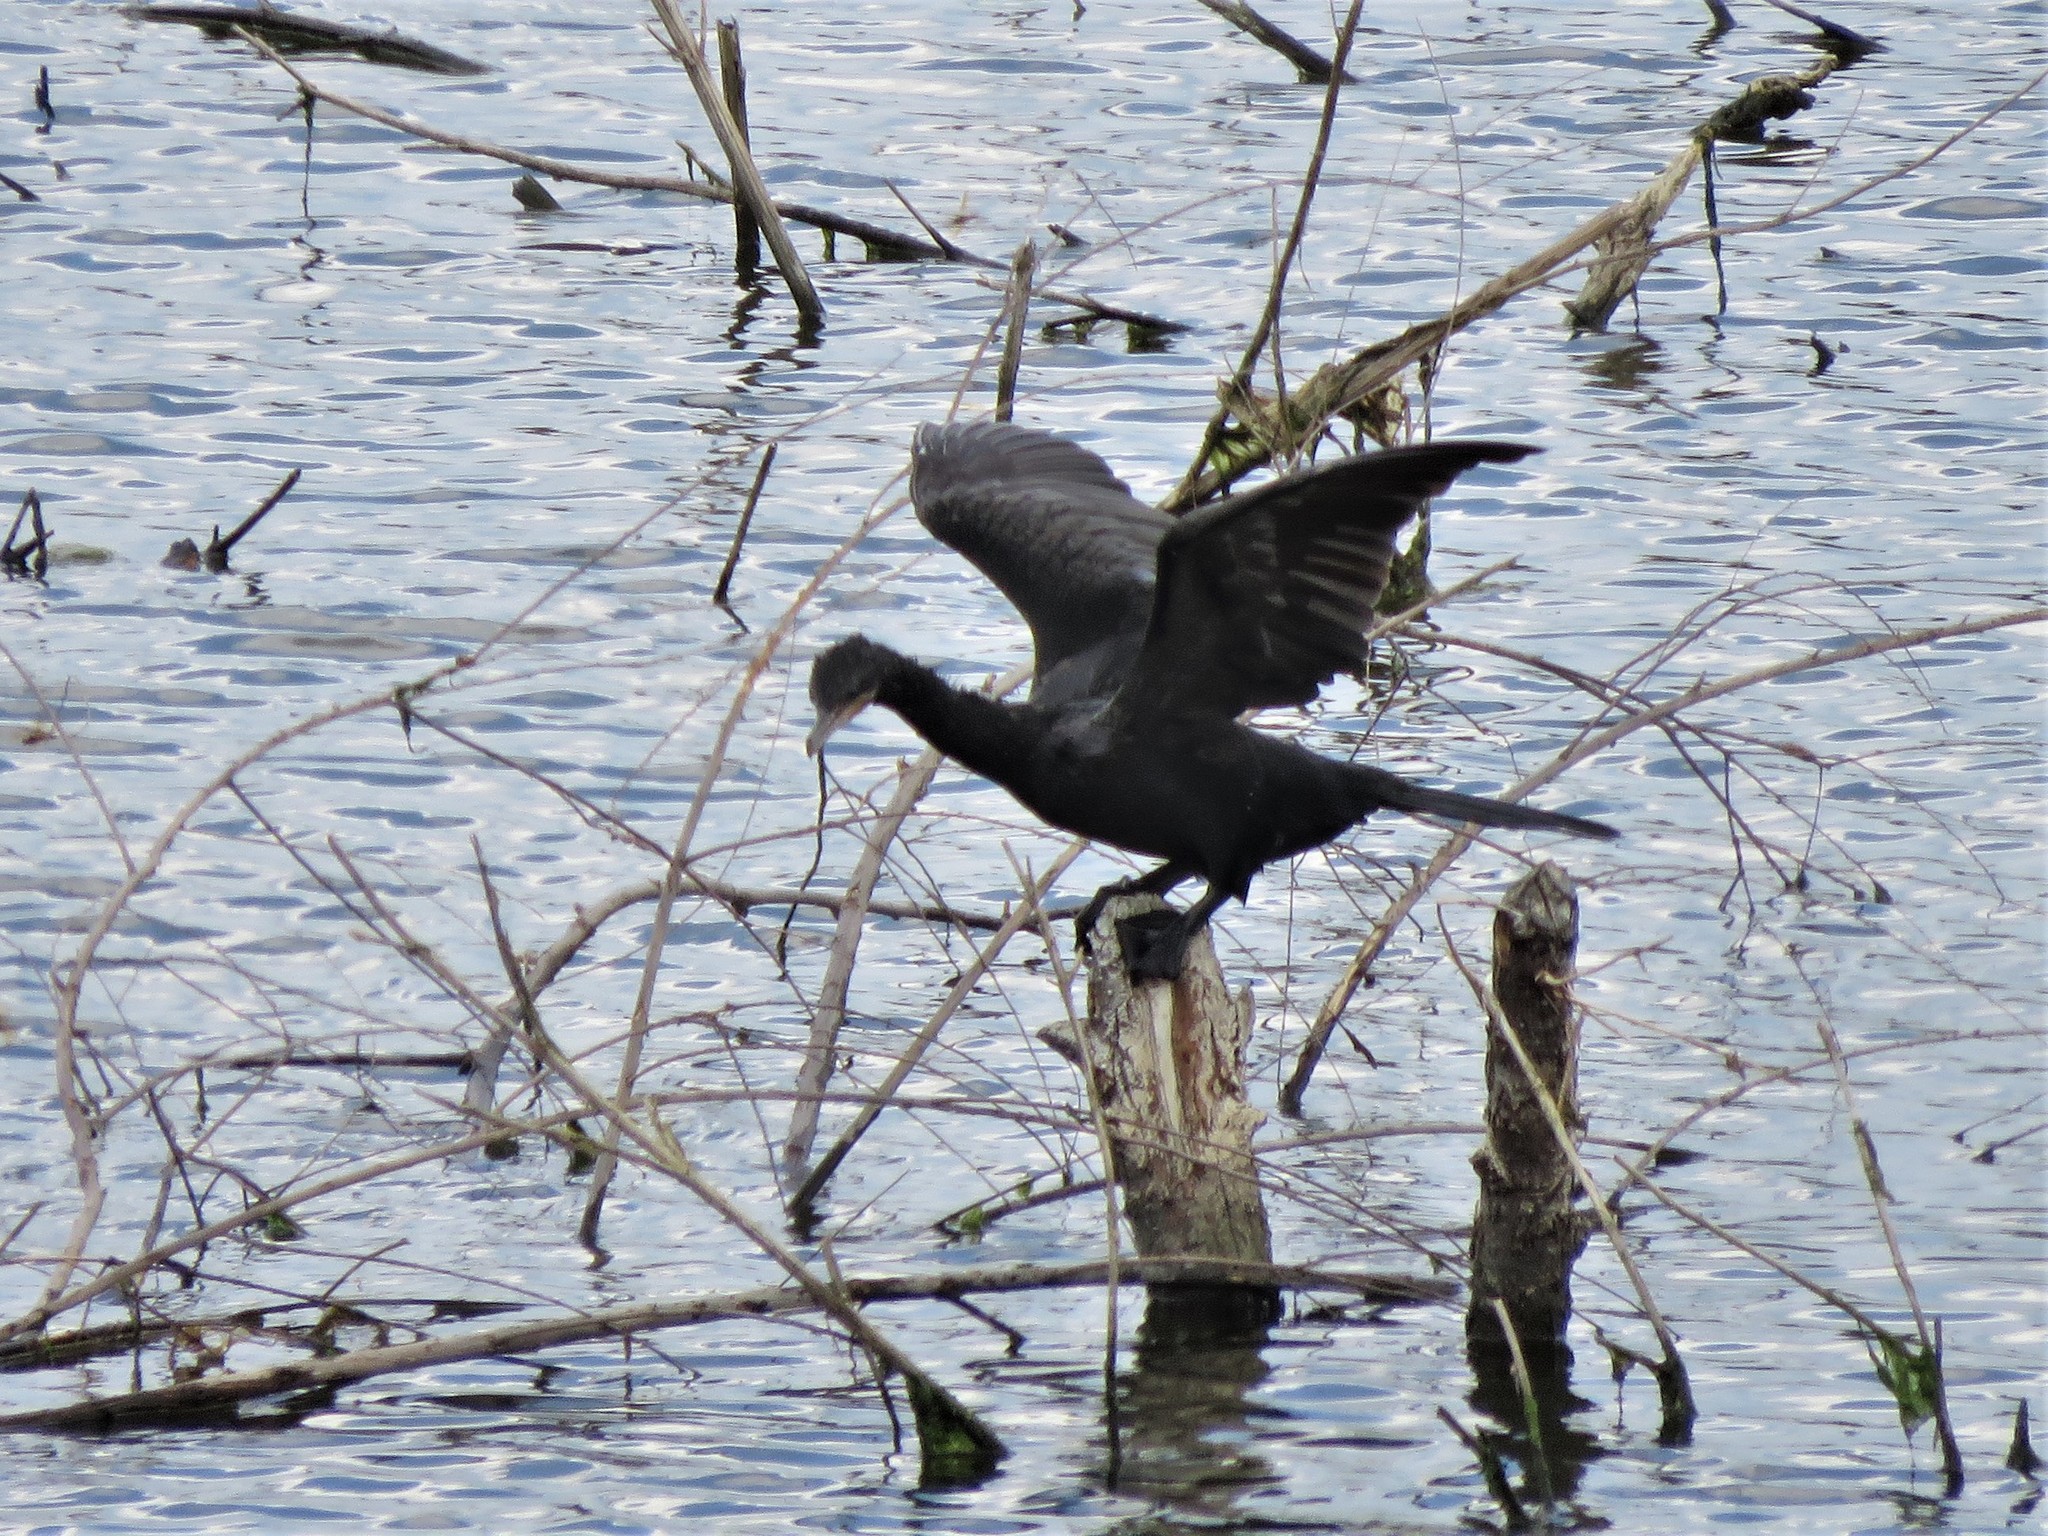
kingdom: Animalia
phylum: Chordata
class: Aves
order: Suliformes
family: Phalacrocoracidae
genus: Phalacrocorax
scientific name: Phalacrocorax brasilianus
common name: Neotropic cormorant
